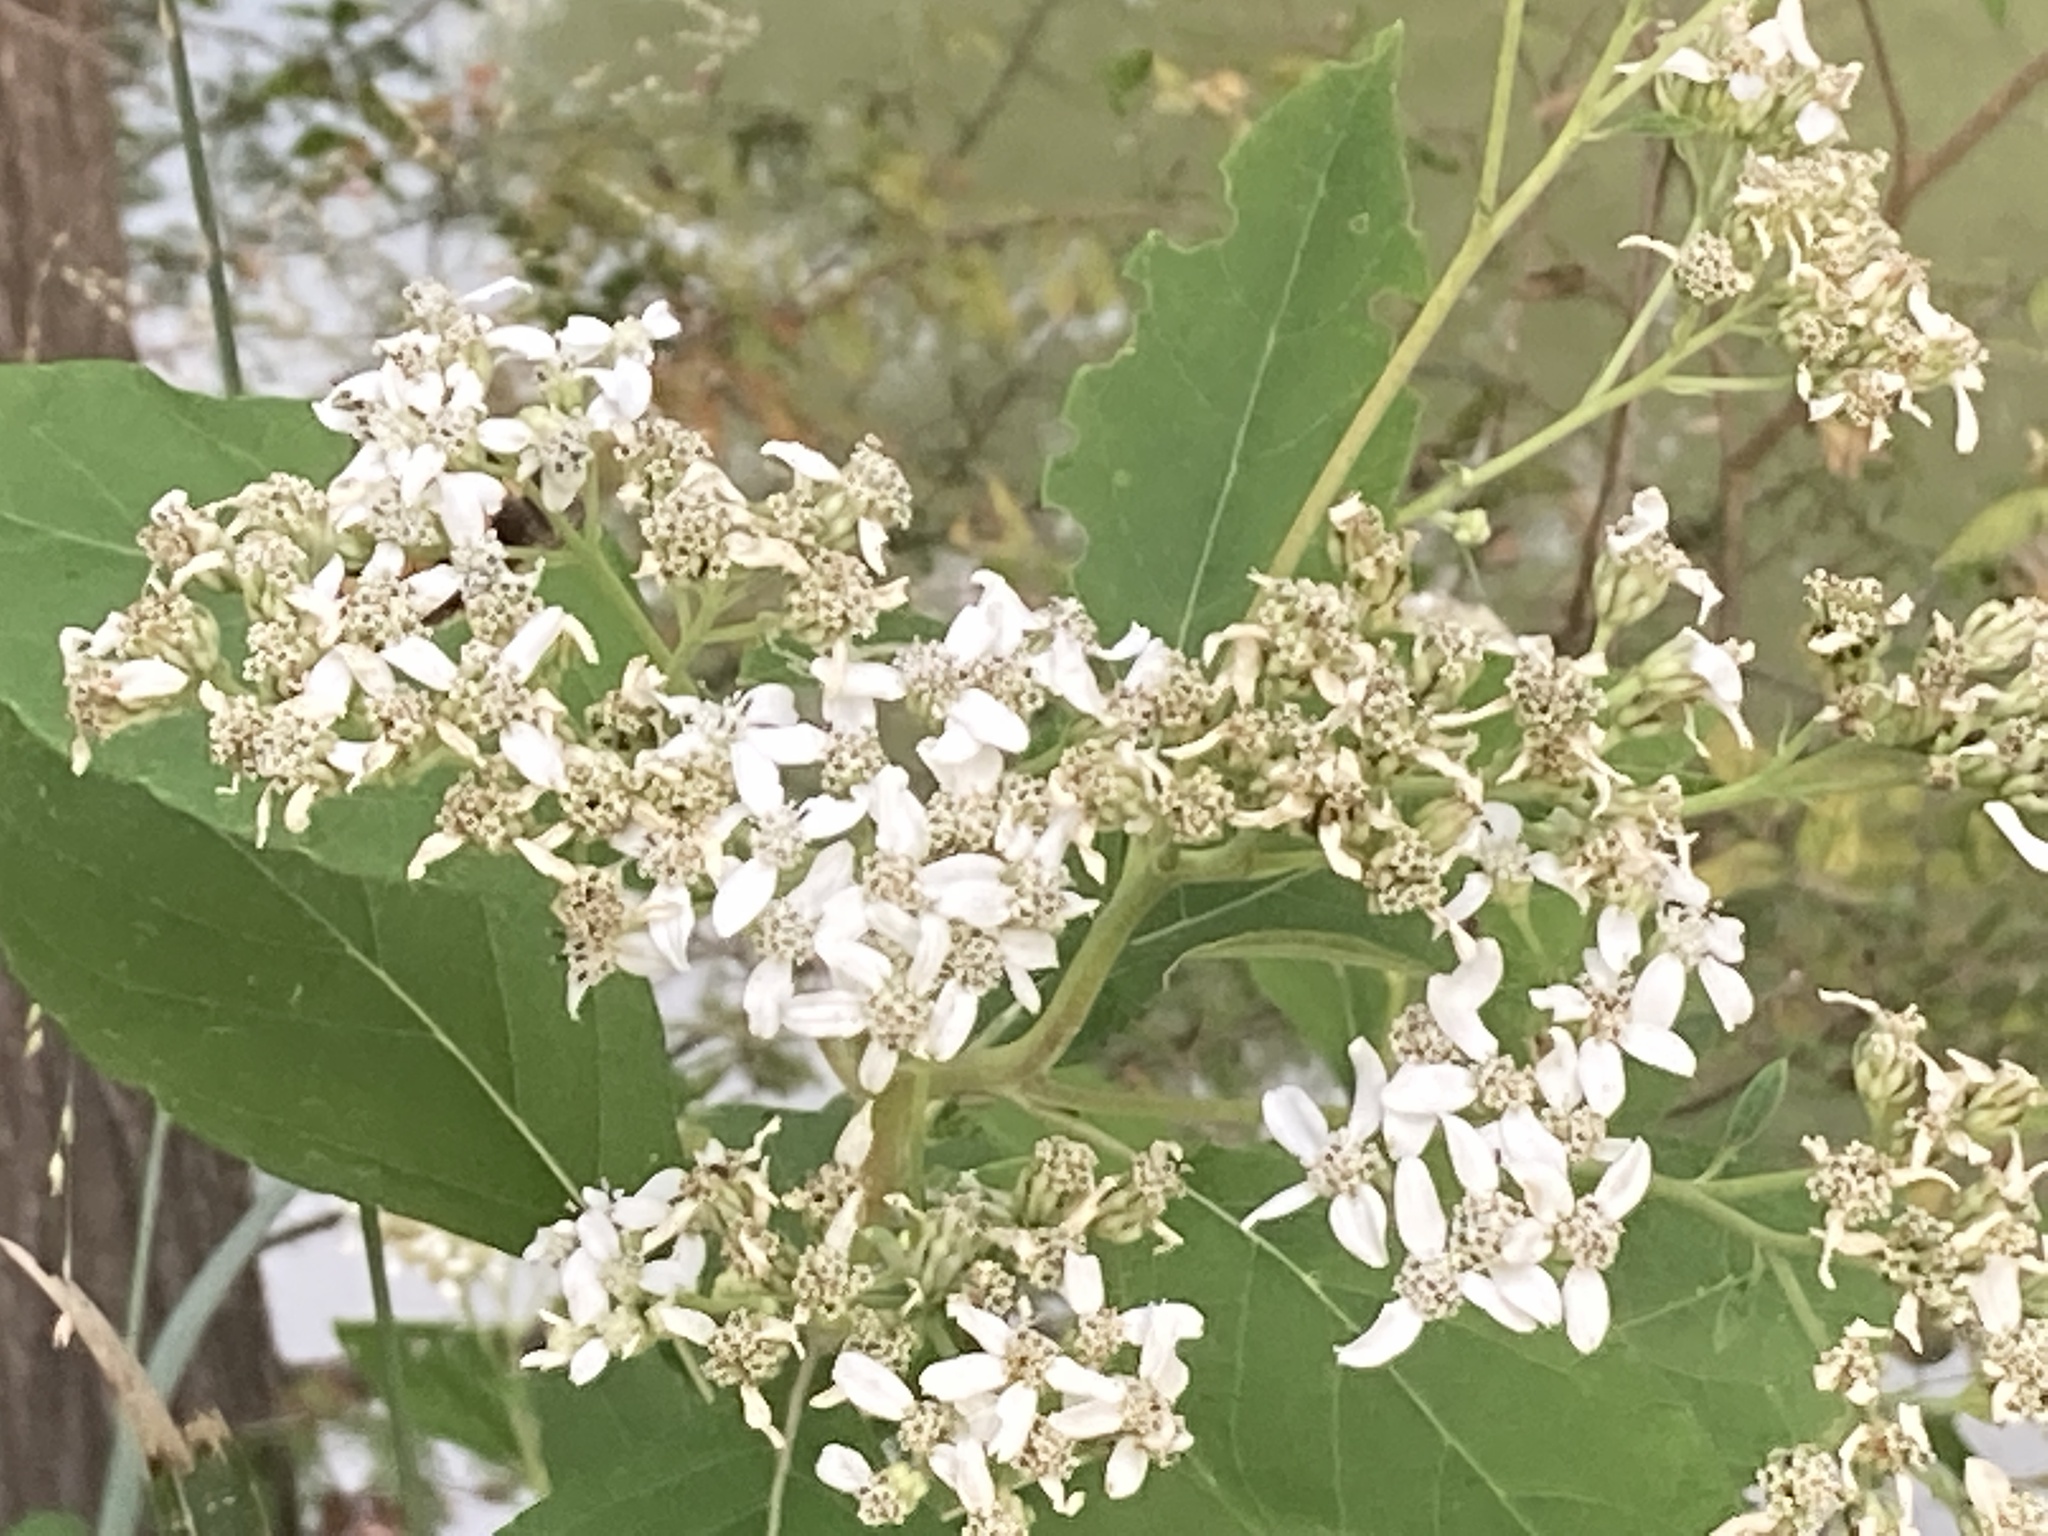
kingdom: Plantae
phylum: Tracheophyta
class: Magnoliopsida
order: Asterales
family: Asteraceae
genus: Verbesina
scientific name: Verbesina virginica
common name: Frostweed
